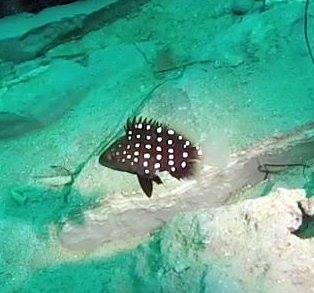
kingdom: Animalia
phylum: Chordata
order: Perciformes
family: Serranidae
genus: Hyporthodus
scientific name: Hyporthodus niphobles
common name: Mero machado
